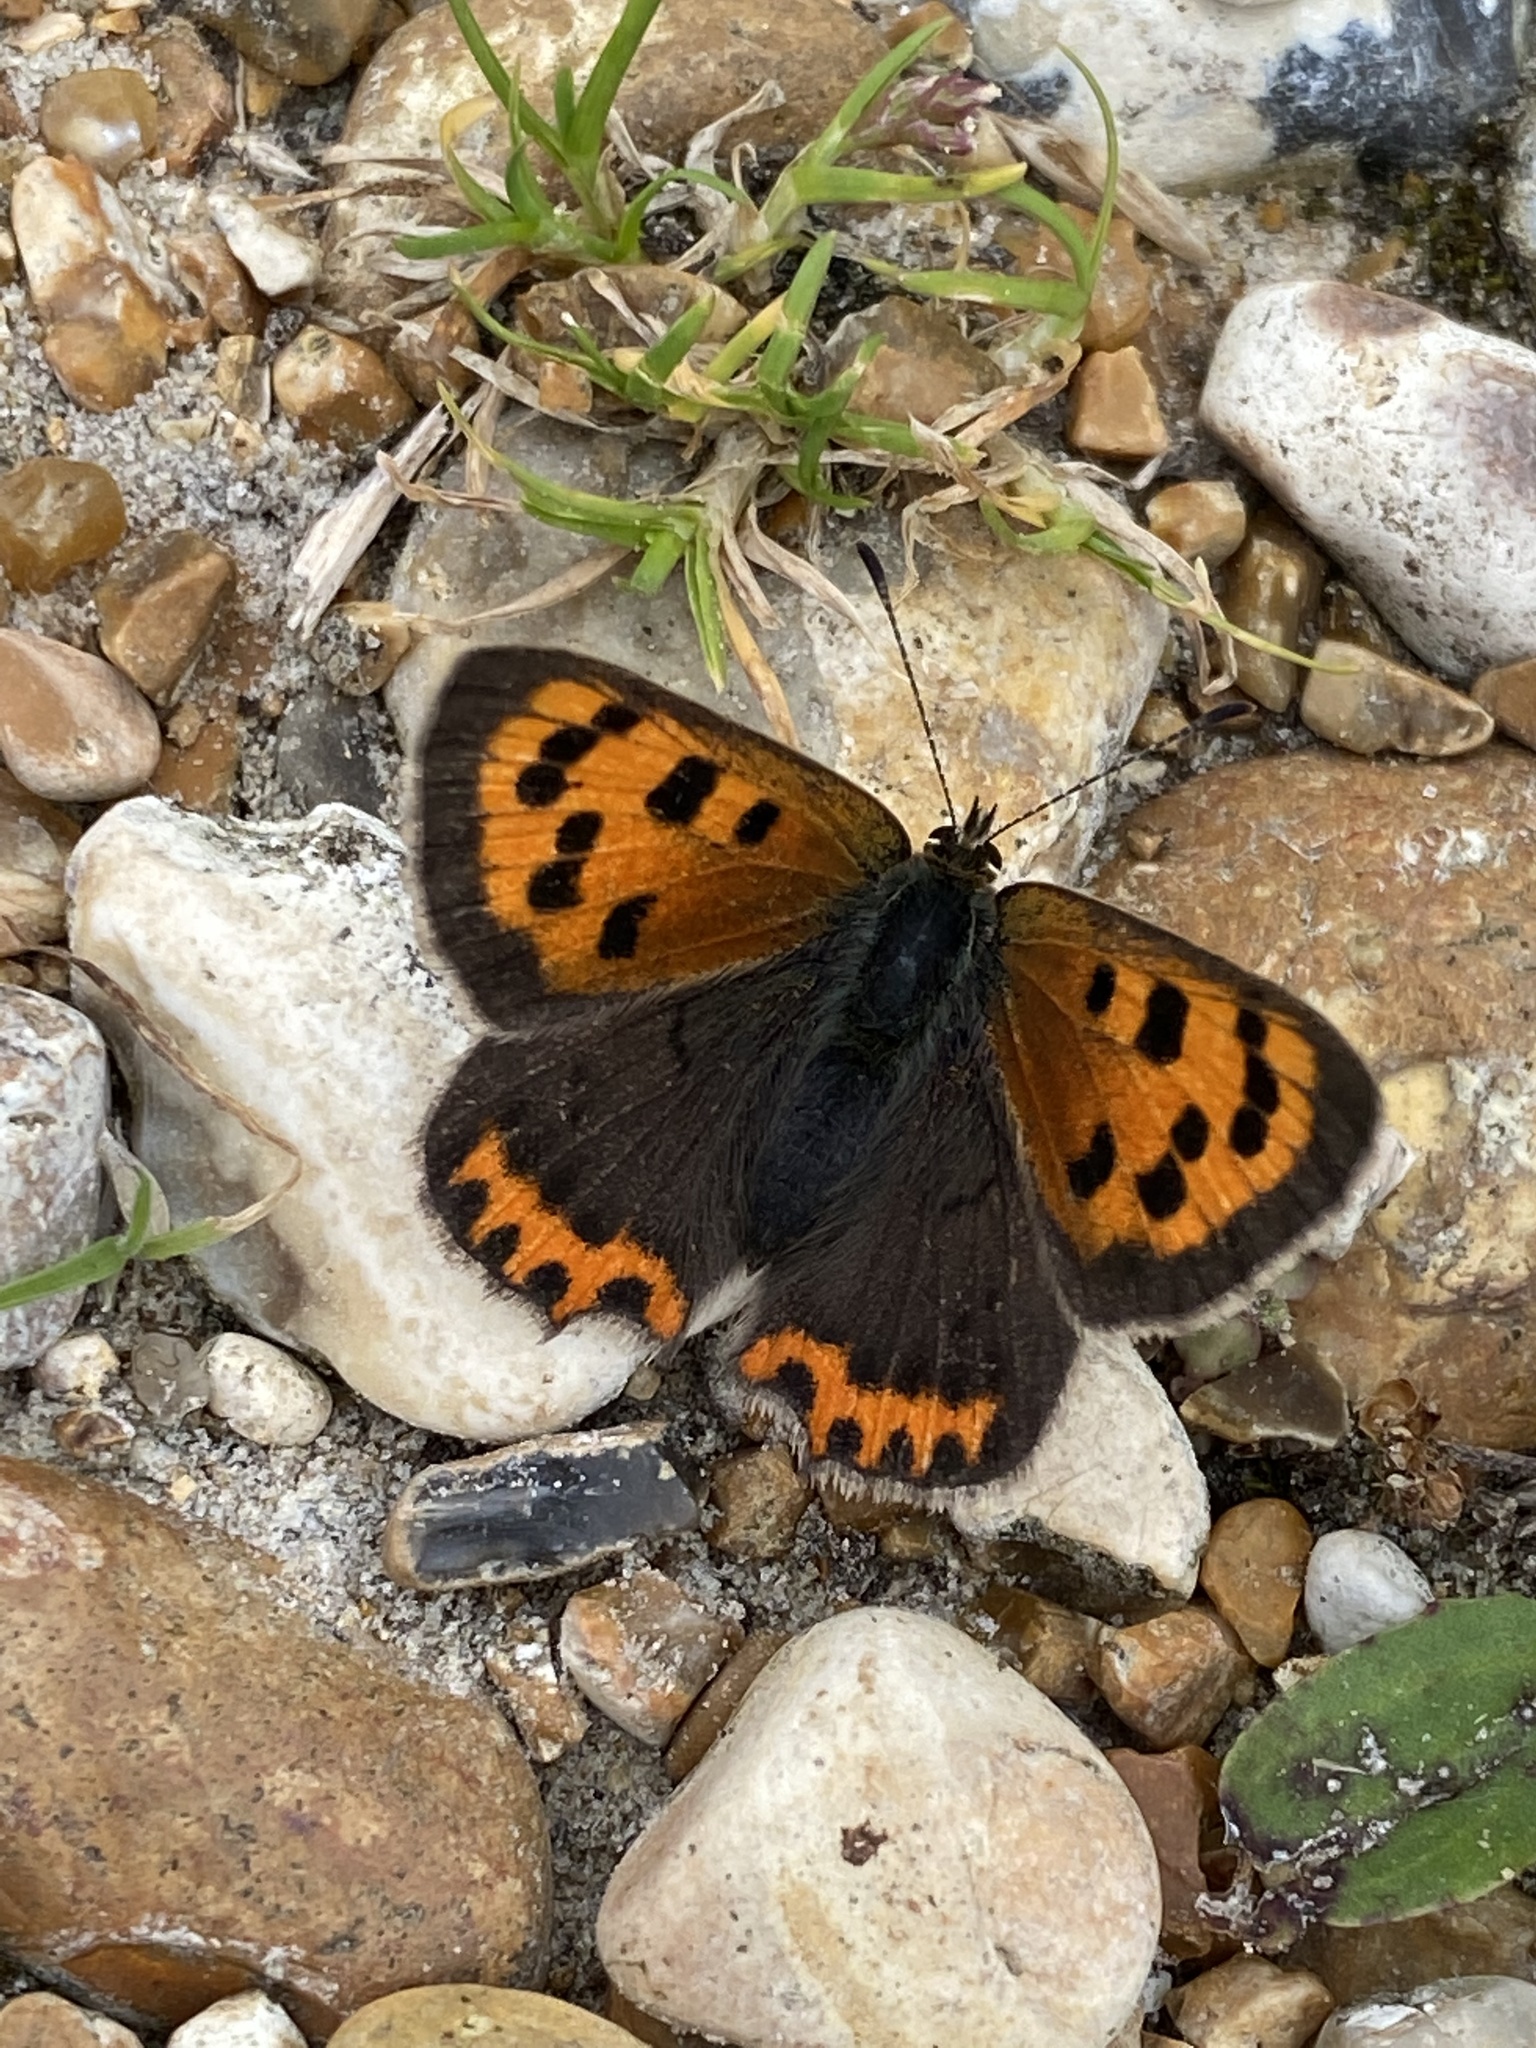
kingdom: Animalia
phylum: Arthropoda
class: Insecta
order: Lepidoptera
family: Lycaenidae
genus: Lycaena
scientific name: Lycaena phlaeas
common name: Small copper
